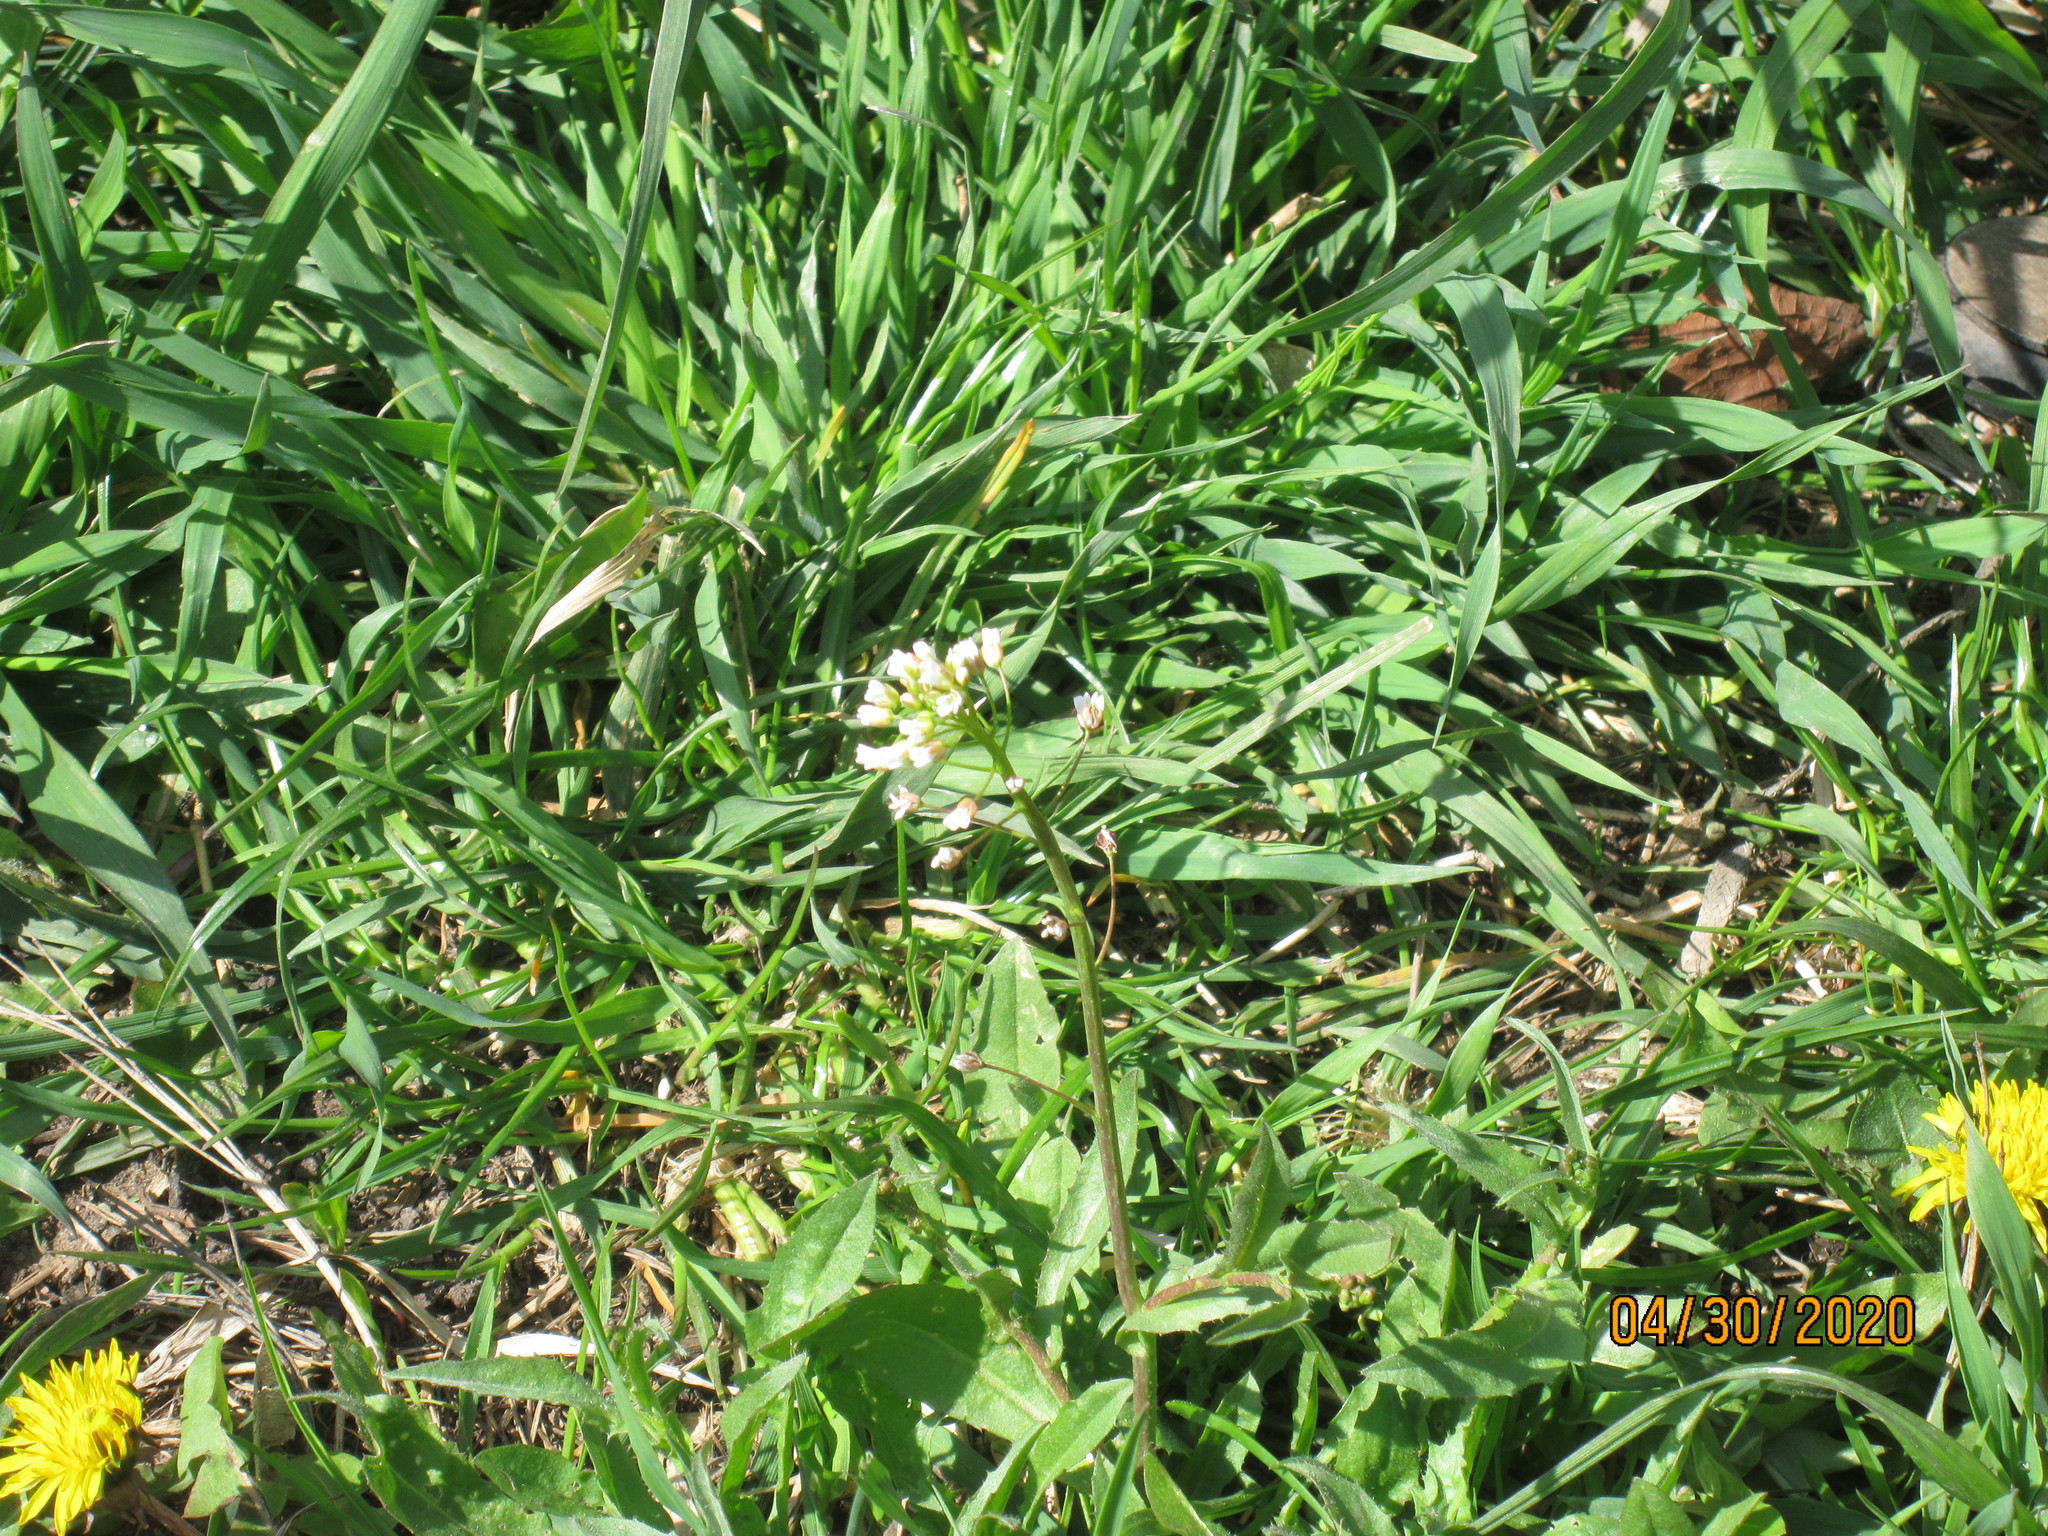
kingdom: Plantae
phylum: Tracheophyta
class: Magnoliopsida
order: Brassicales
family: Brassicaceae
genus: Capsella
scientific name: Capsella bursa-pastoris
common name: Shepherd's purse
